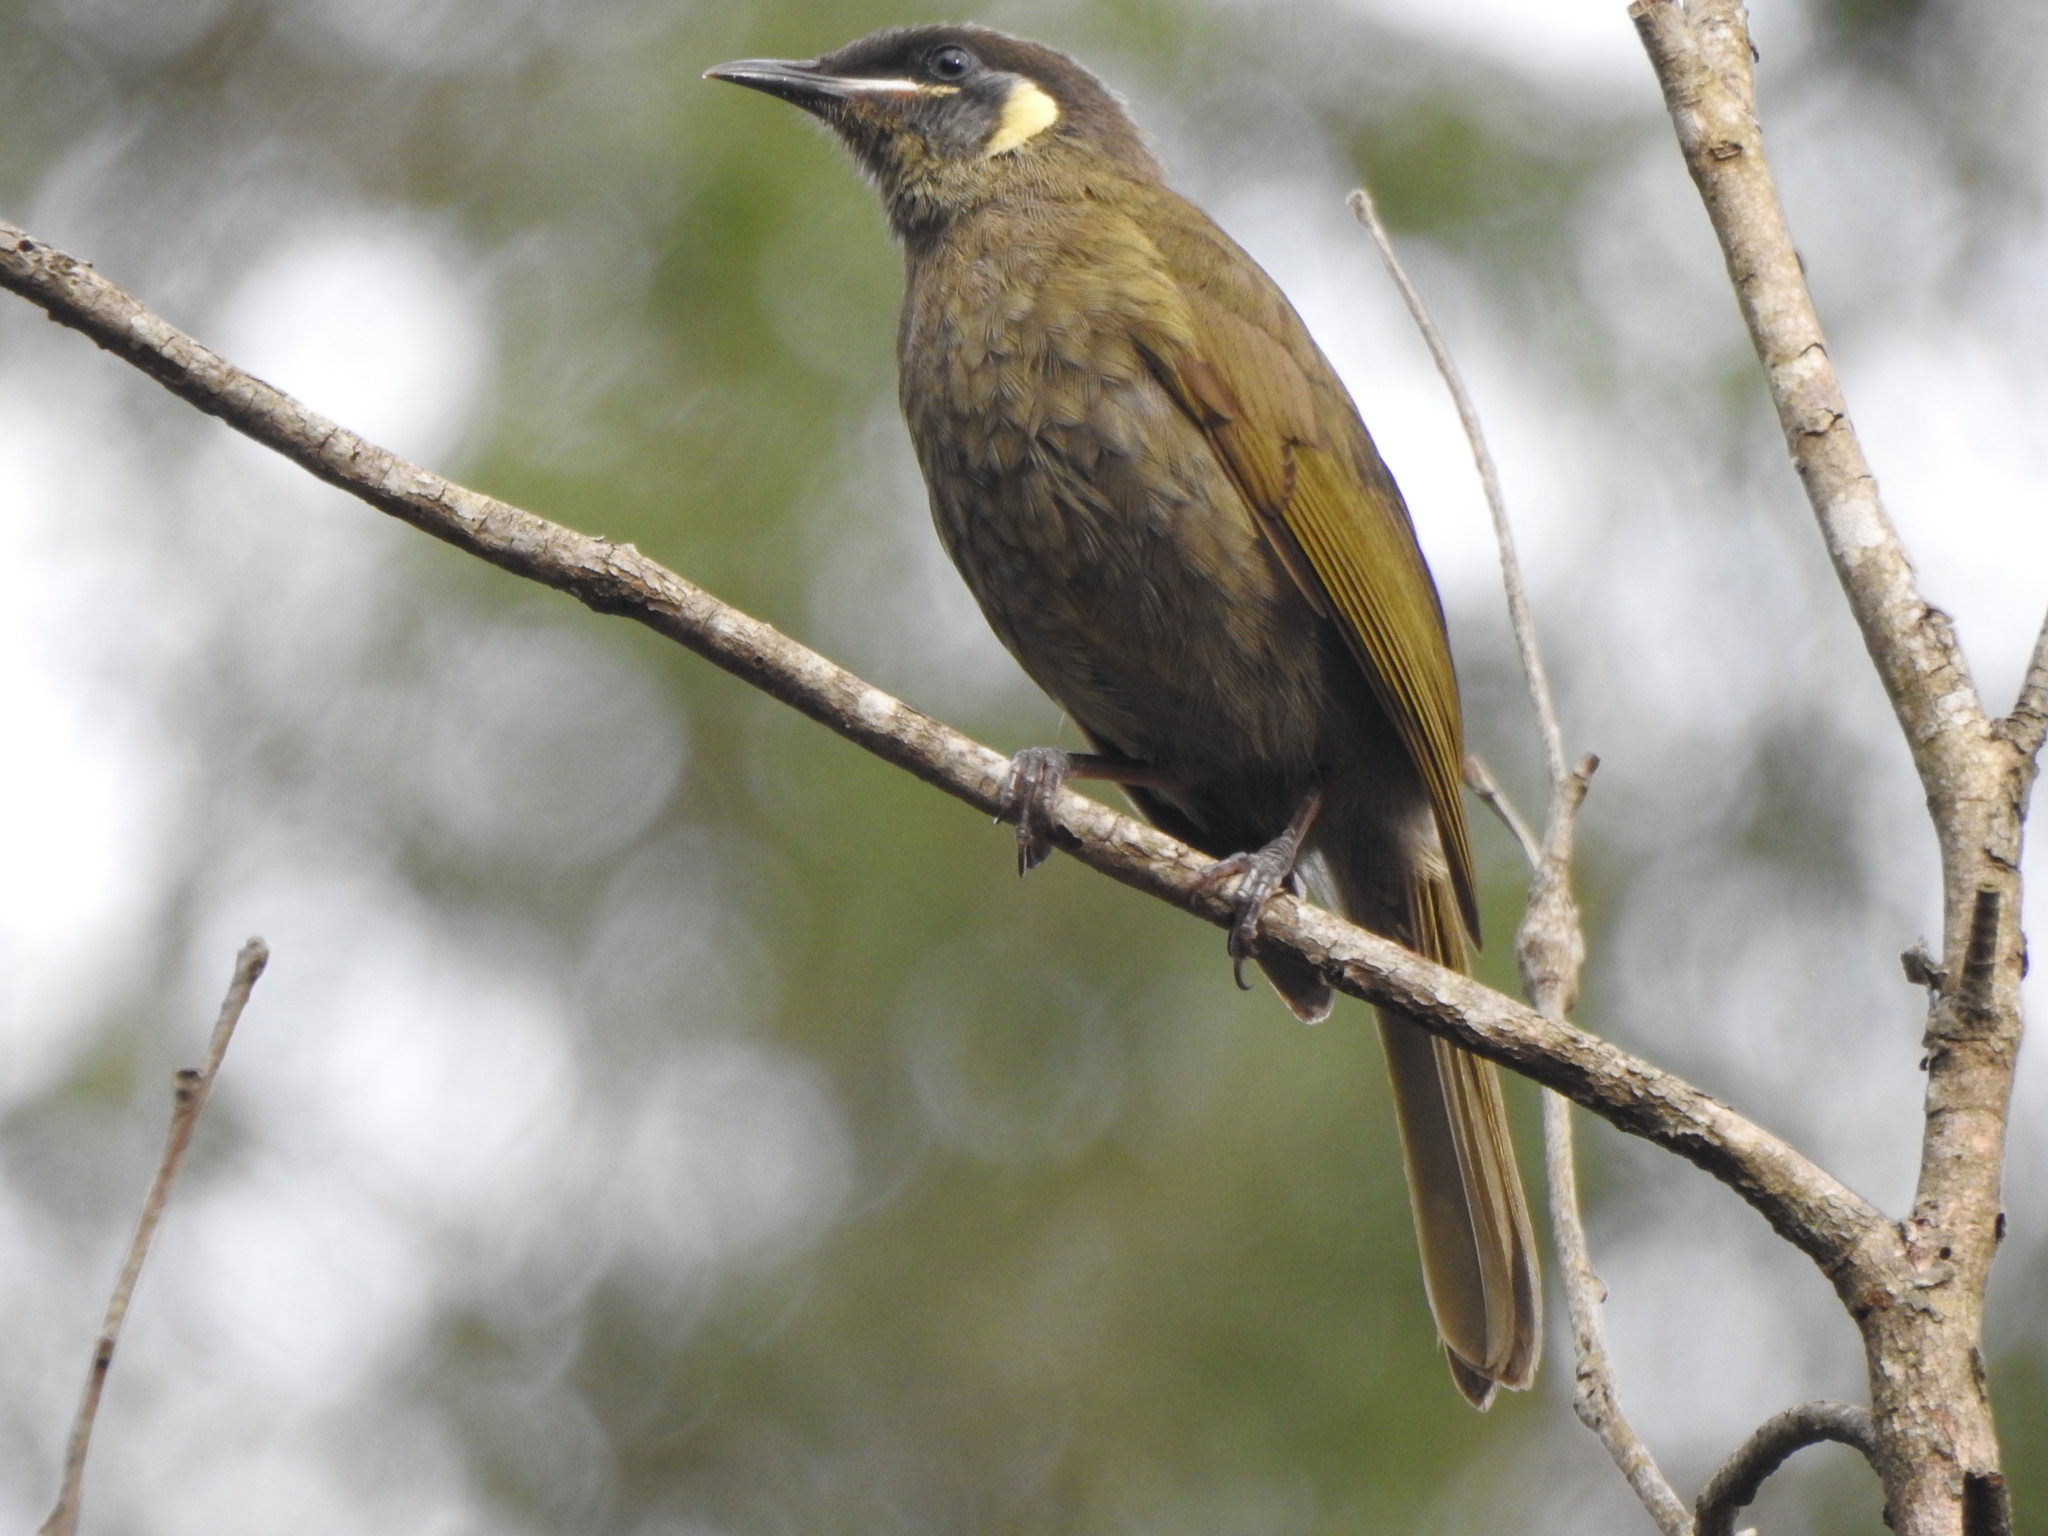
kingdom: Animalia
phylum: Chordata
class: Aves
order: Passeriformes
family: Meliphagidae
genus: Meliphaga
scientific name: Meliphaga lewinii
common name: Lewin's honeyeater
